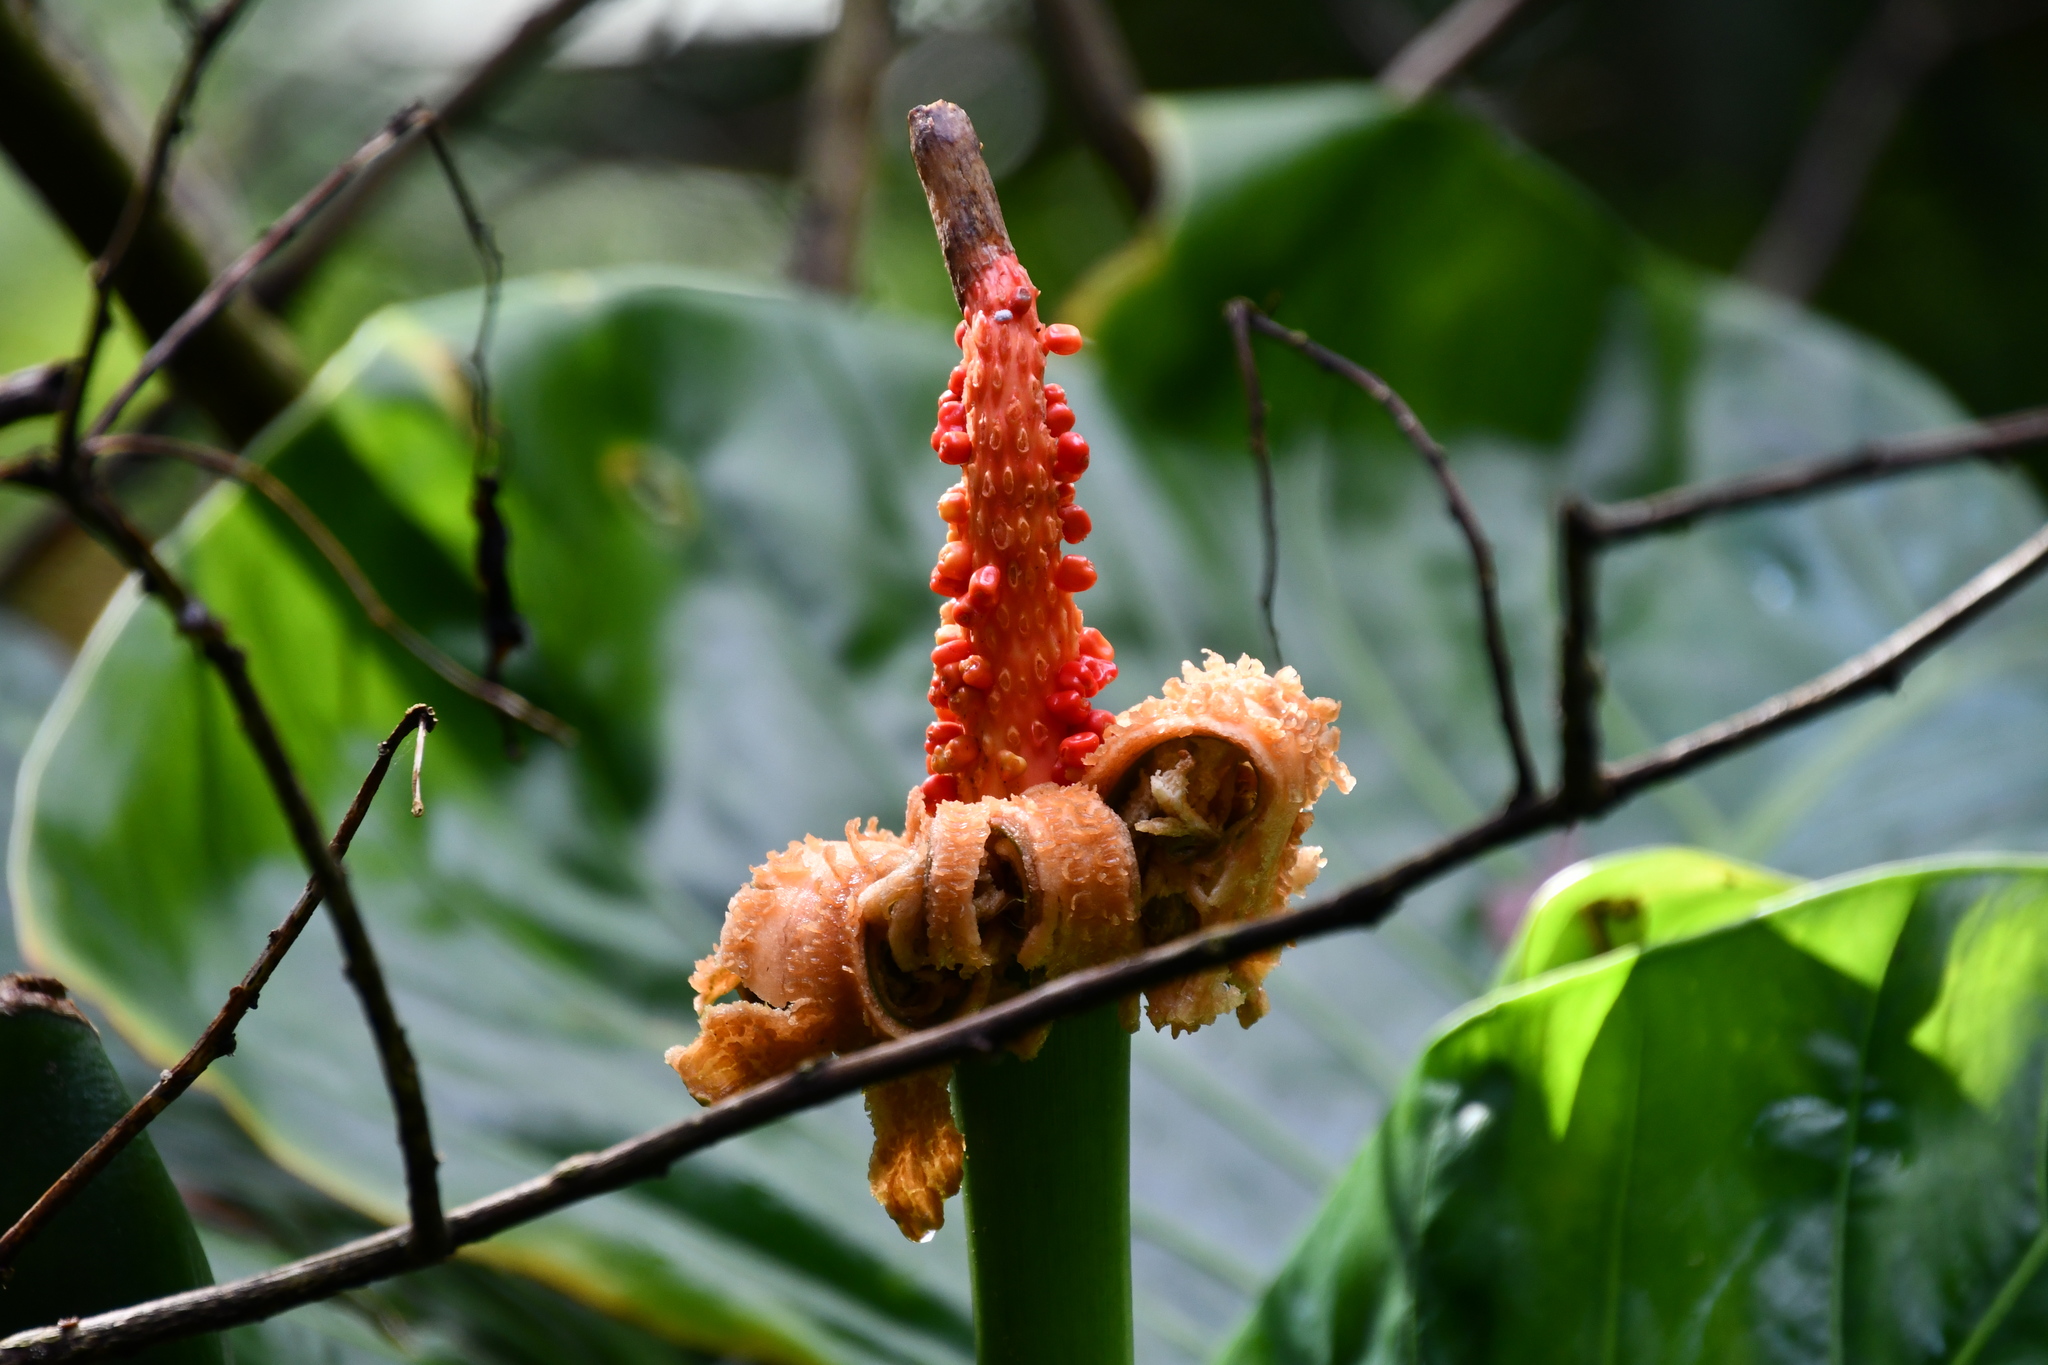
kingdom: Plantae
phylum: Tracheophyta
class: Liliopsida
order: Alismatales
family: Araceae
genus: Alocasia
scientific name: Alocasia brisbanensis
